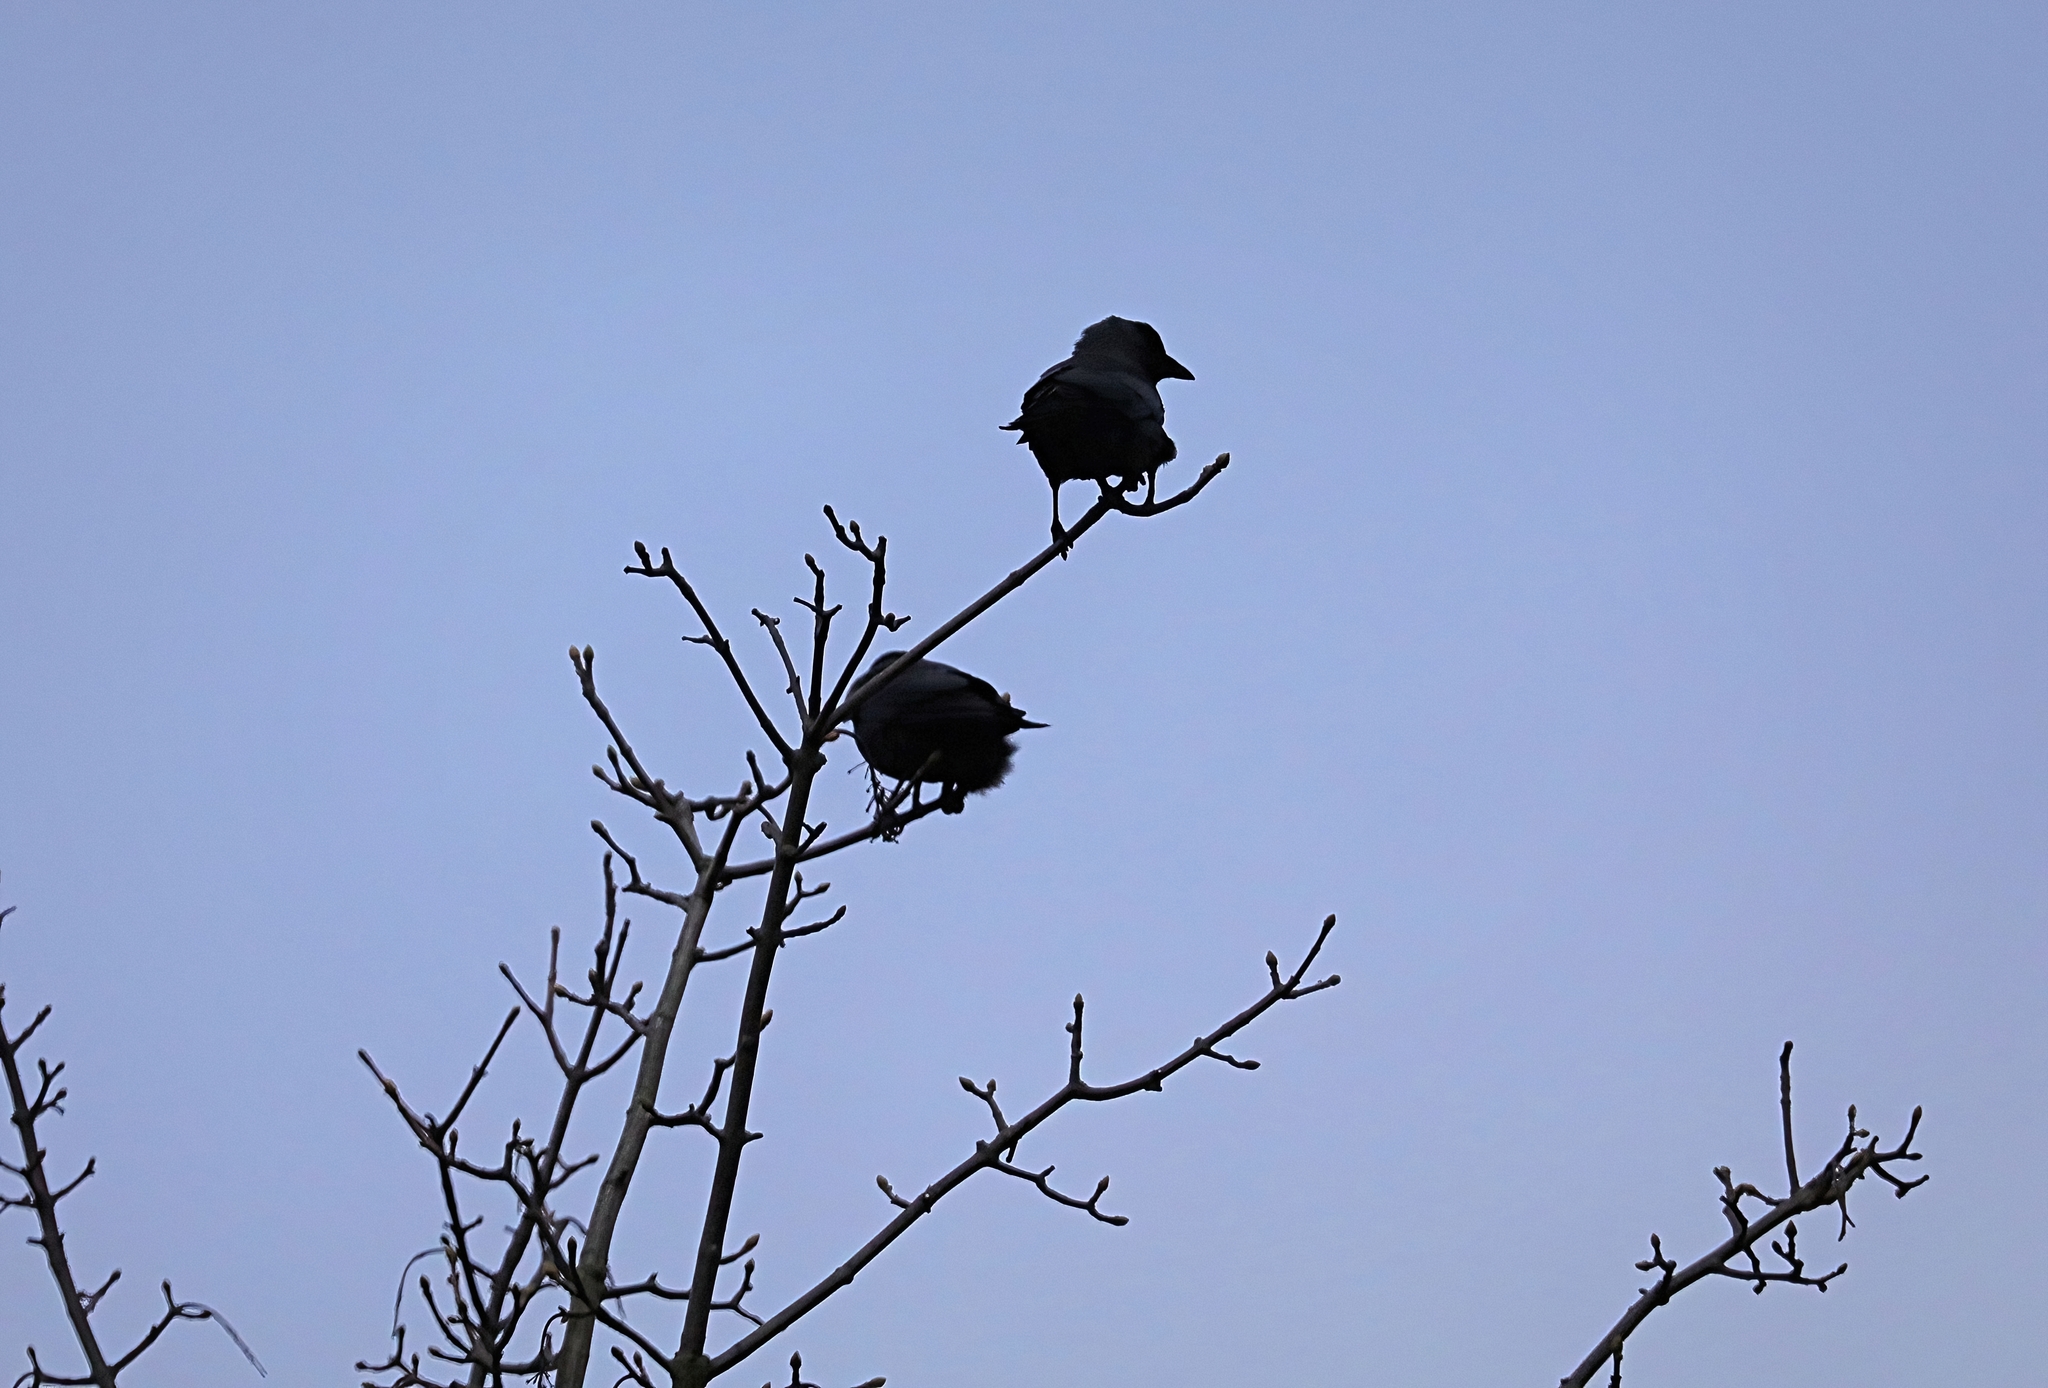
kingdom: Animalia
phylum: Chordata
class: Aves
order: Passeriformes
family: Corvidae
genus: Coloeus
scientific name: Coloeus monedula
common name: Western jackdaw
